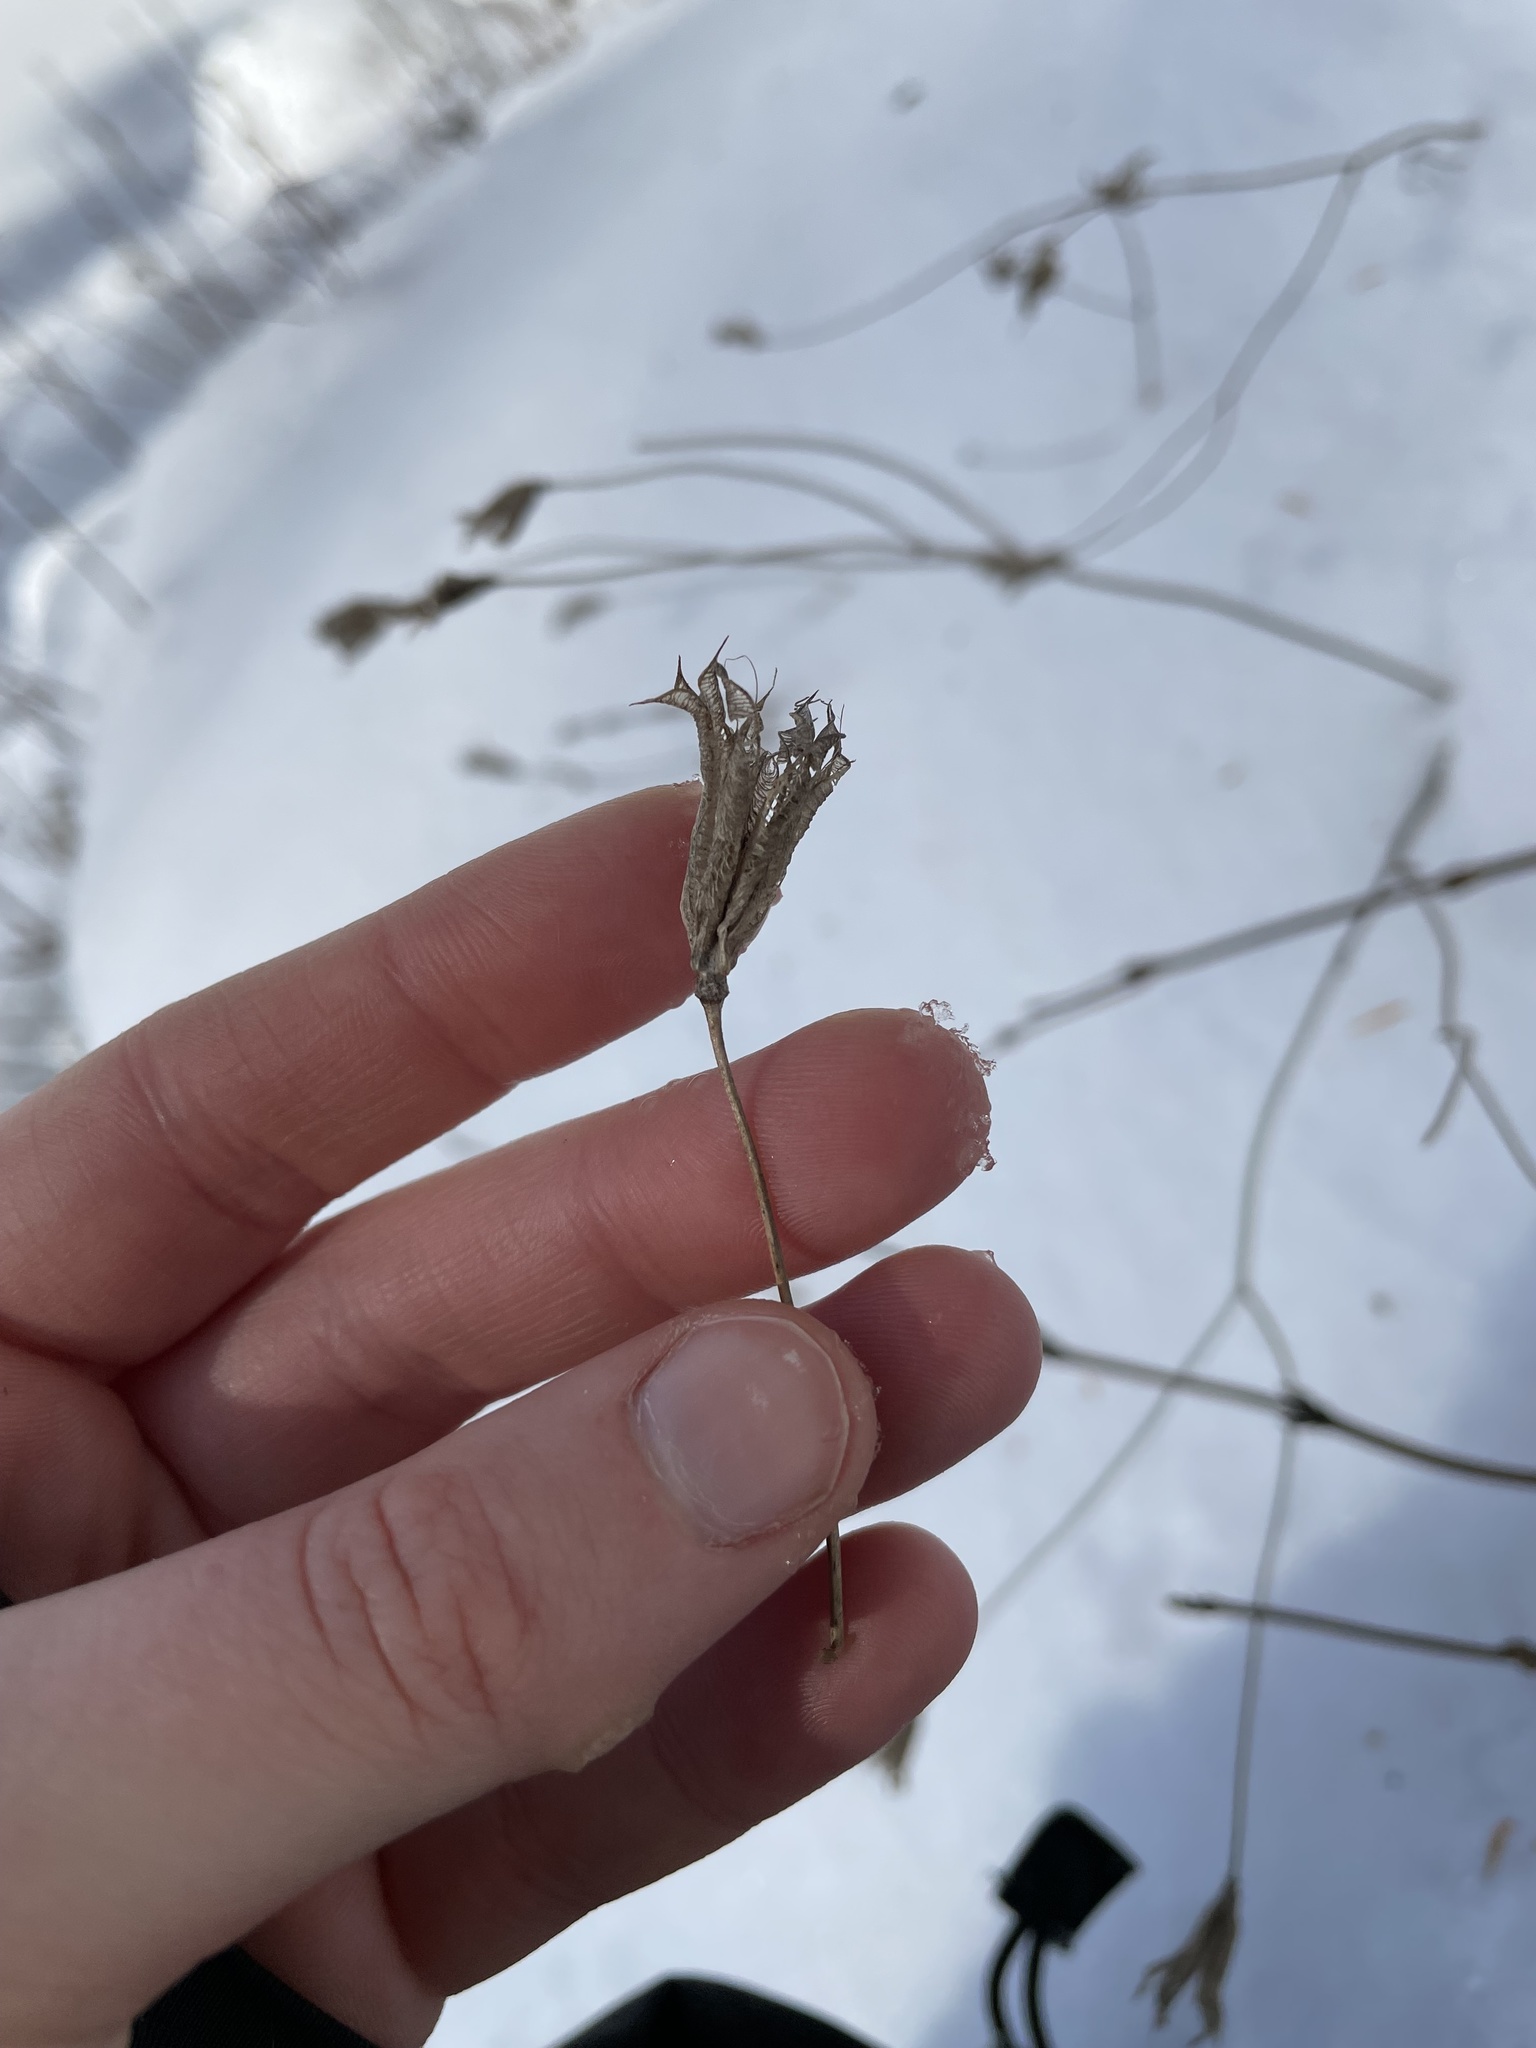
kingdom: Plantae
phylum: Tracheophyta
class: Magnoliopsida
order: Ranunculales
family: Ranunculaceae
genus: Aquilegia
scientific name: Aquilegia canadensis
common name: American columbine
